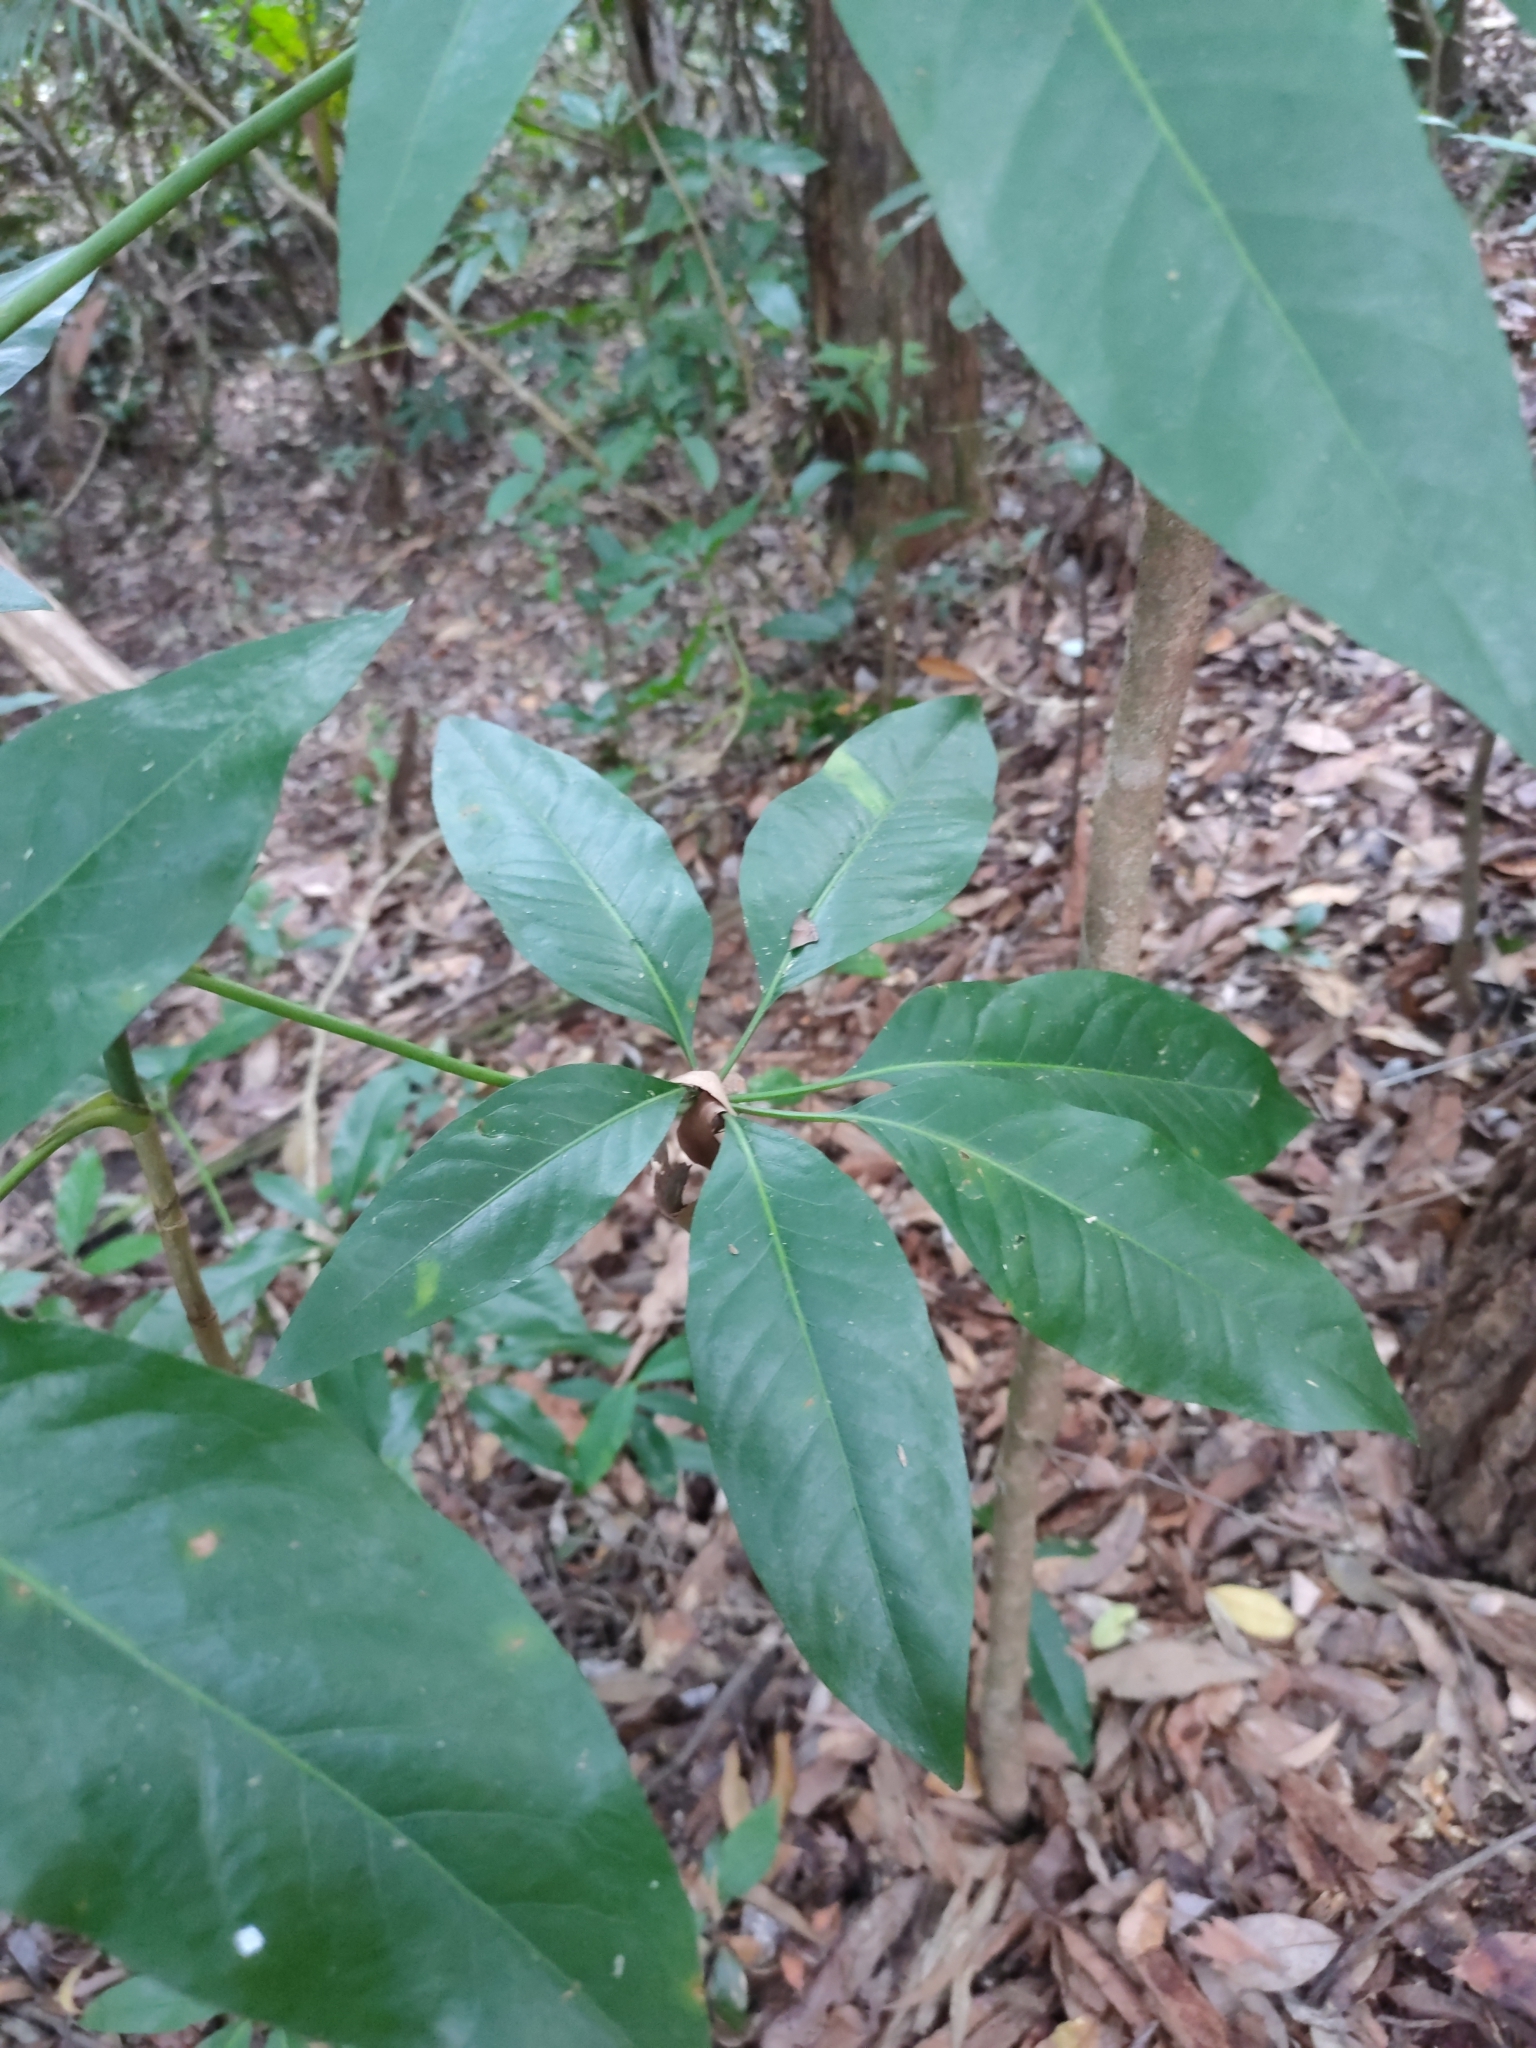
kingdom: Plantae
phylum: Tracheophyta
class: Magnoliopsida
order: Apiales
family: Apiaceae
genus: Mackinlaya
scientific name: Mackinlaya macrosciadea
